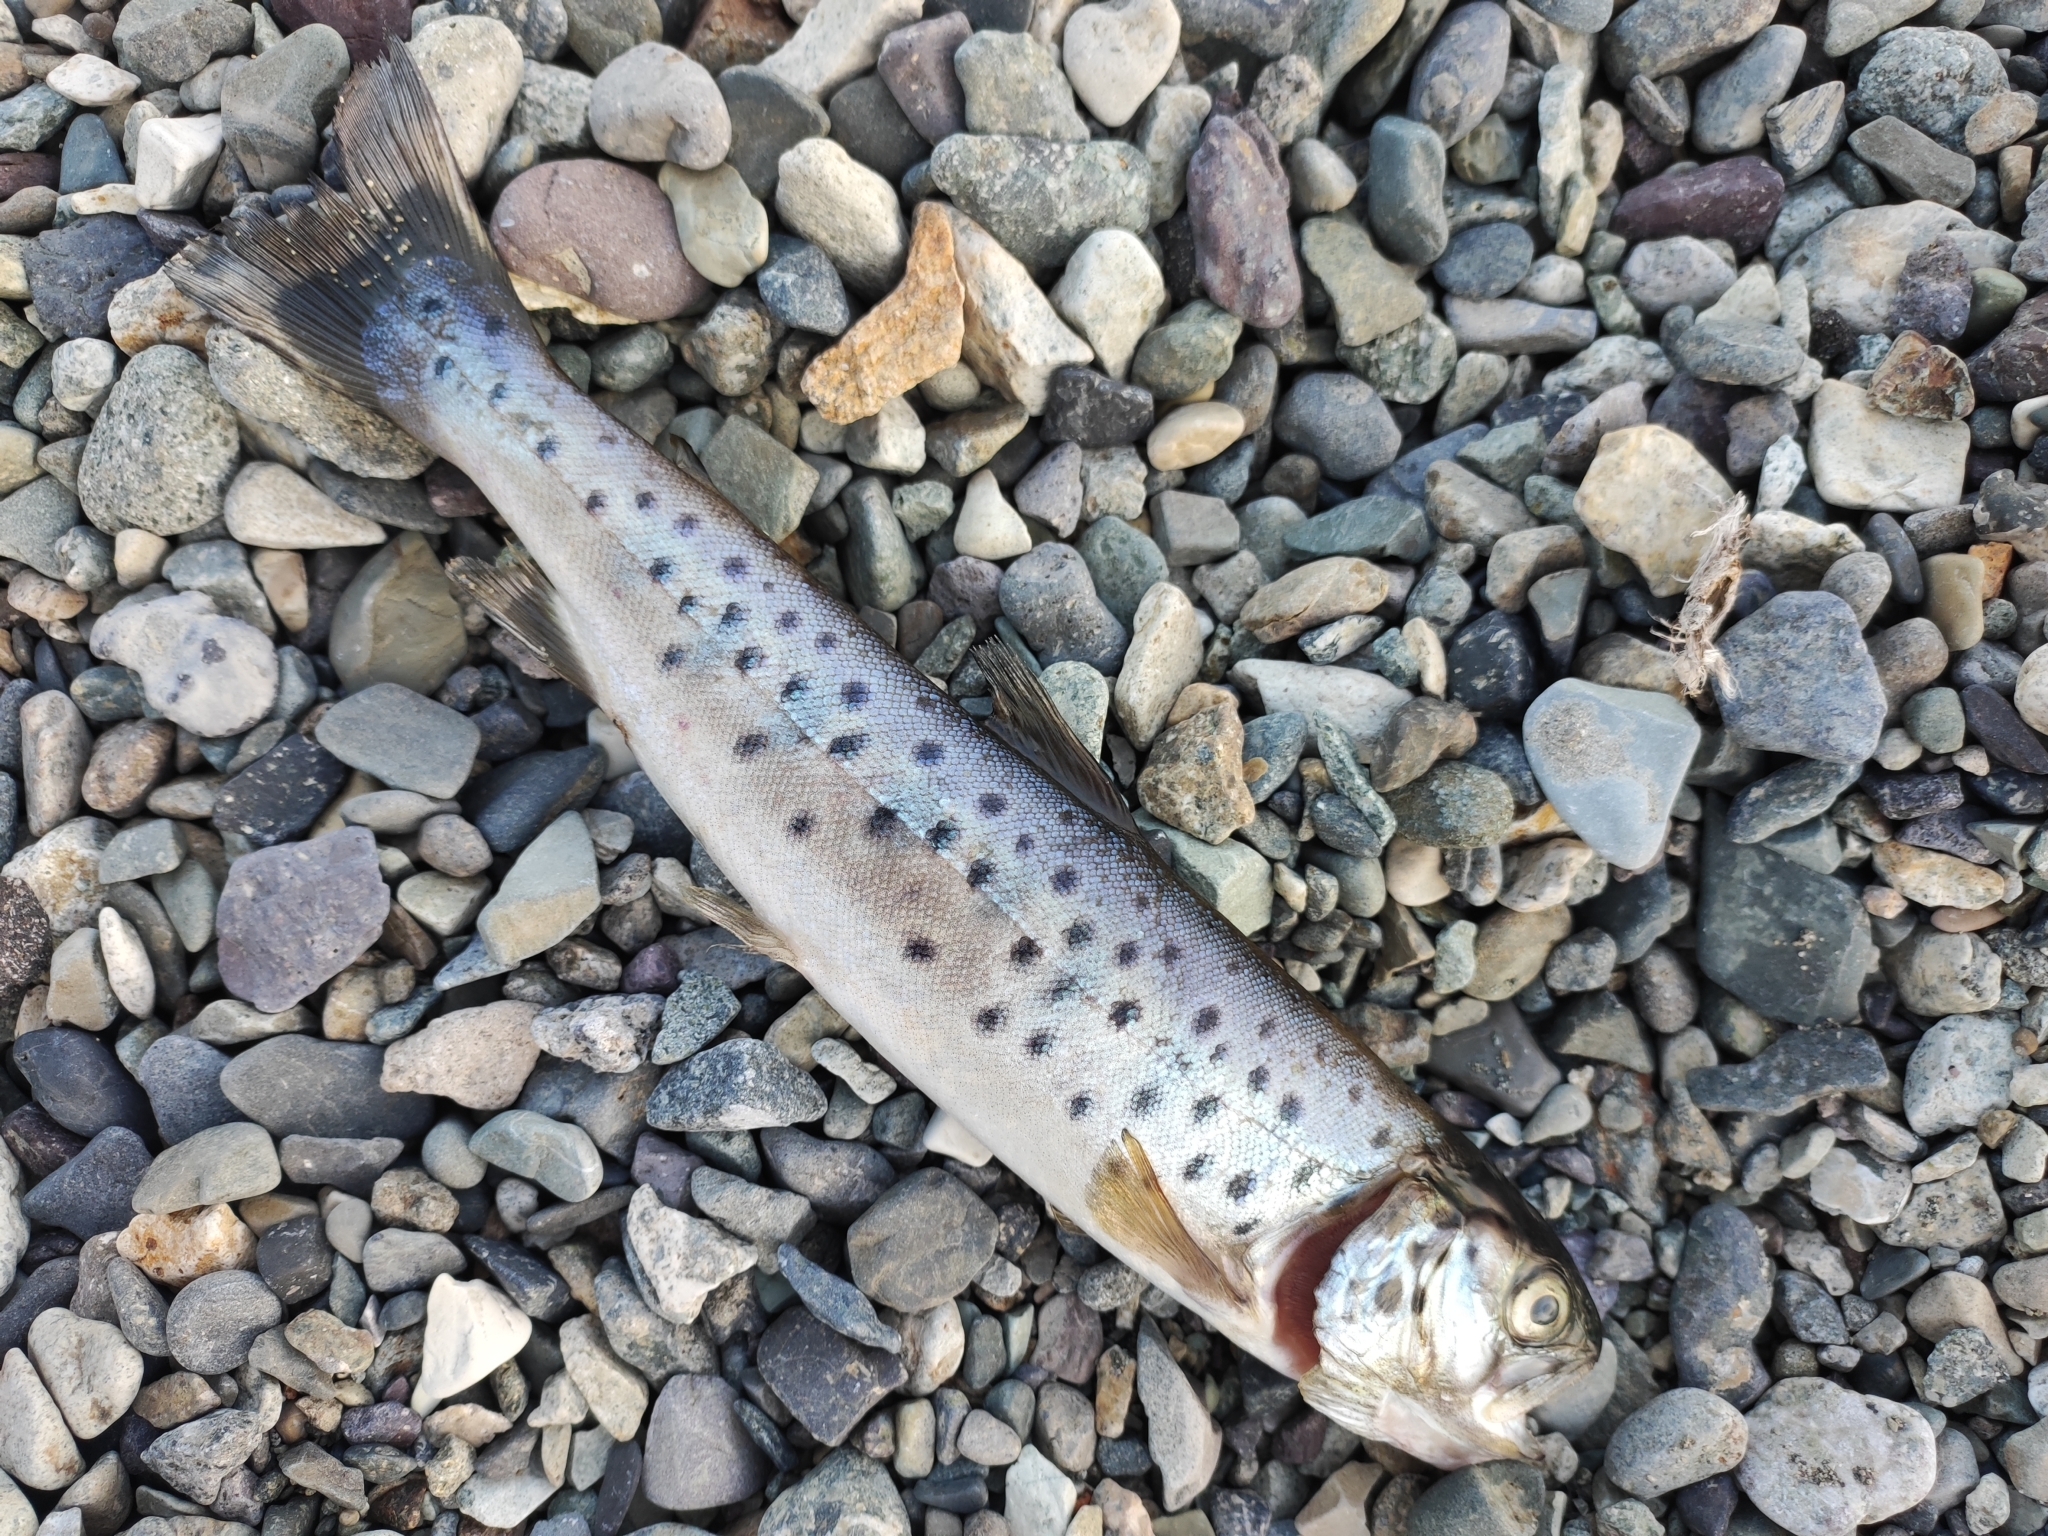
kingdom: Animalia
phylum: Chordata
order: Salmoniformes
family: Salmonidae
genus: Salmo
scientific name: Salmo ischchan
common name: Sevan trout
